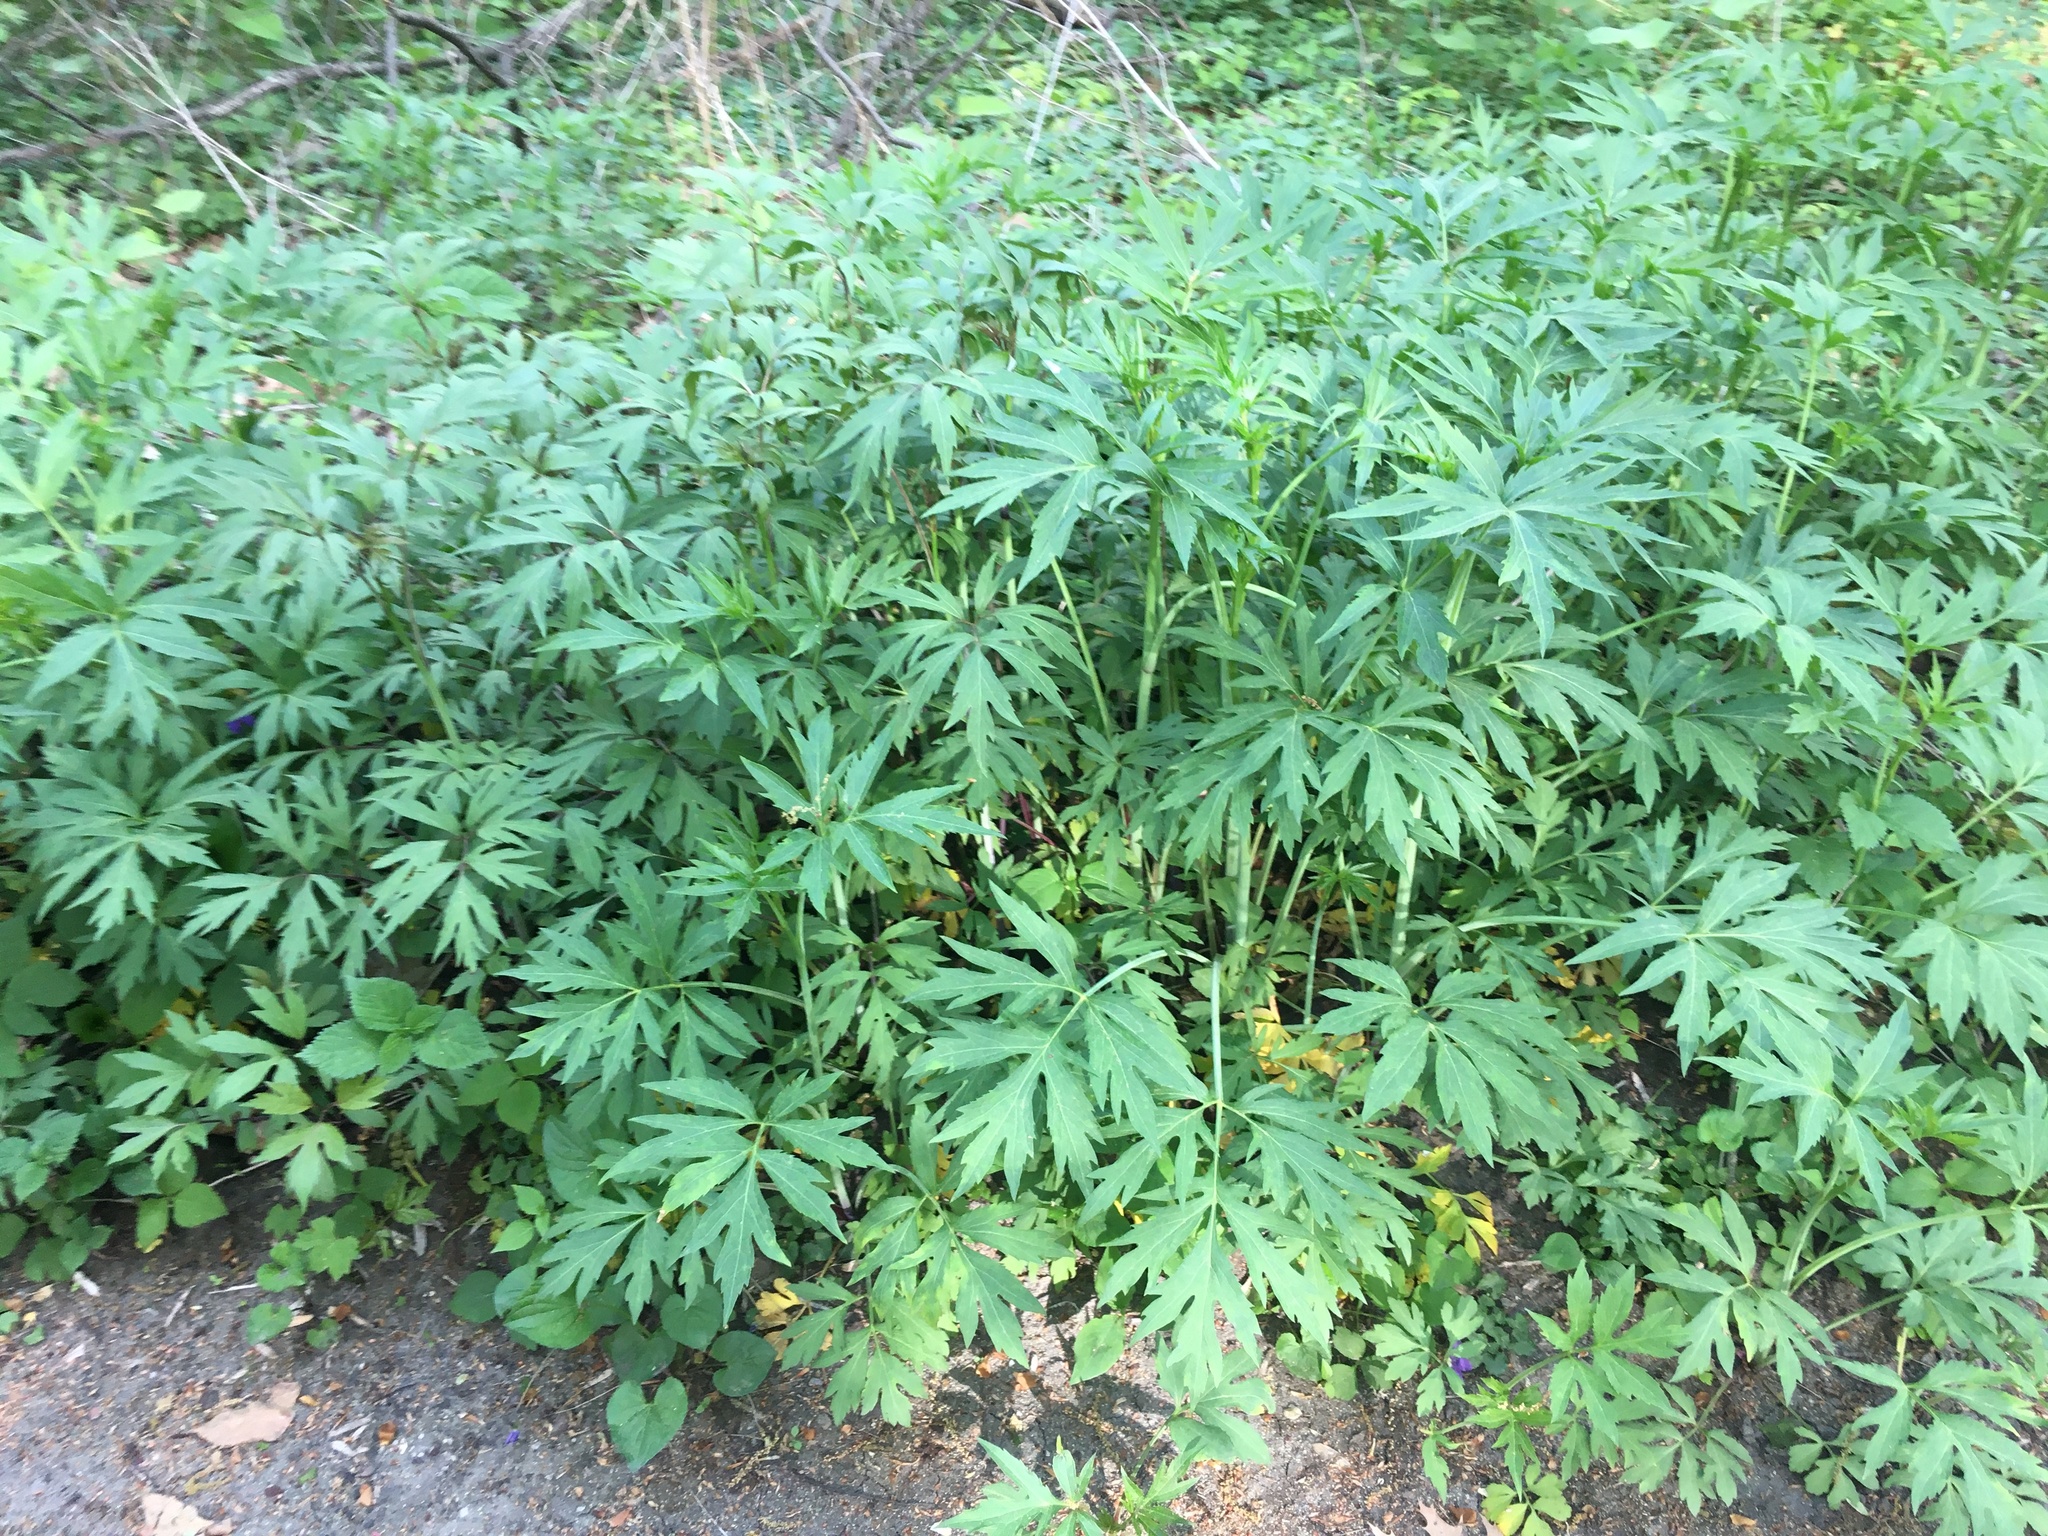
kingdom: Plantae
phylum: Tracheophyta
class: Magnoliopsida
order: Asterales
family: Asteraceae
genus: Rudbeckia
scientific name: Rudbeckia laciniata
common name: Coneflower
